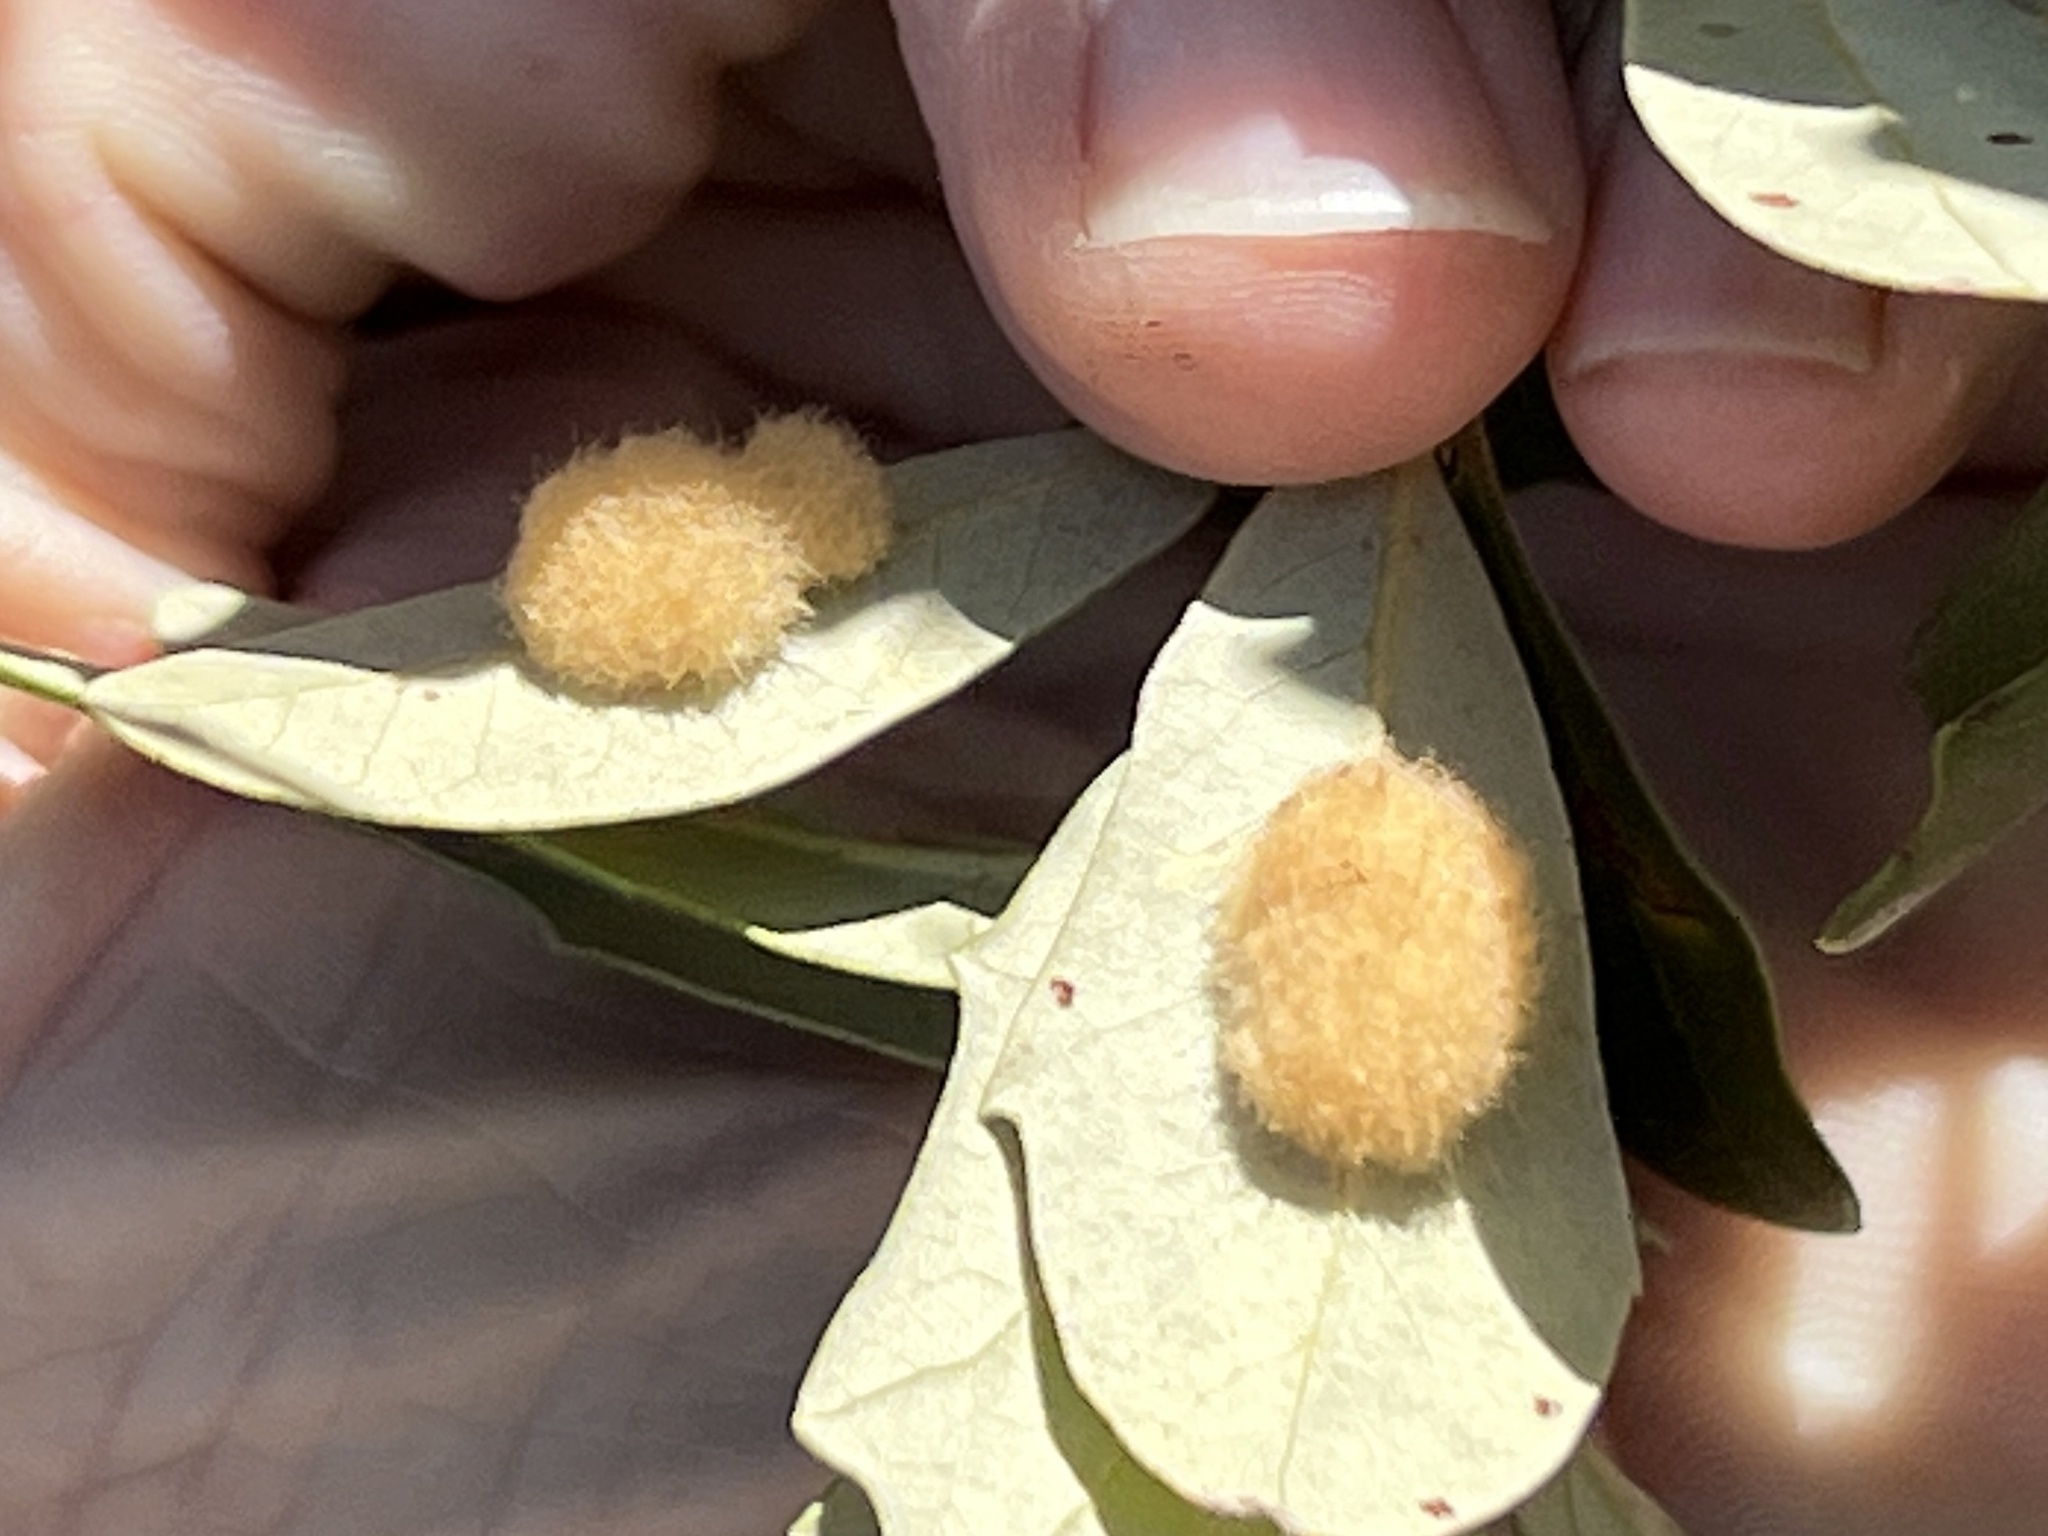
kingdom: Animalia
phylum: Arthropoda
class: Insecta
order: Hymenoptera
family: Cynipidae
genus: Andricus
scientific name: Andricus Druon quercuslanigerum
